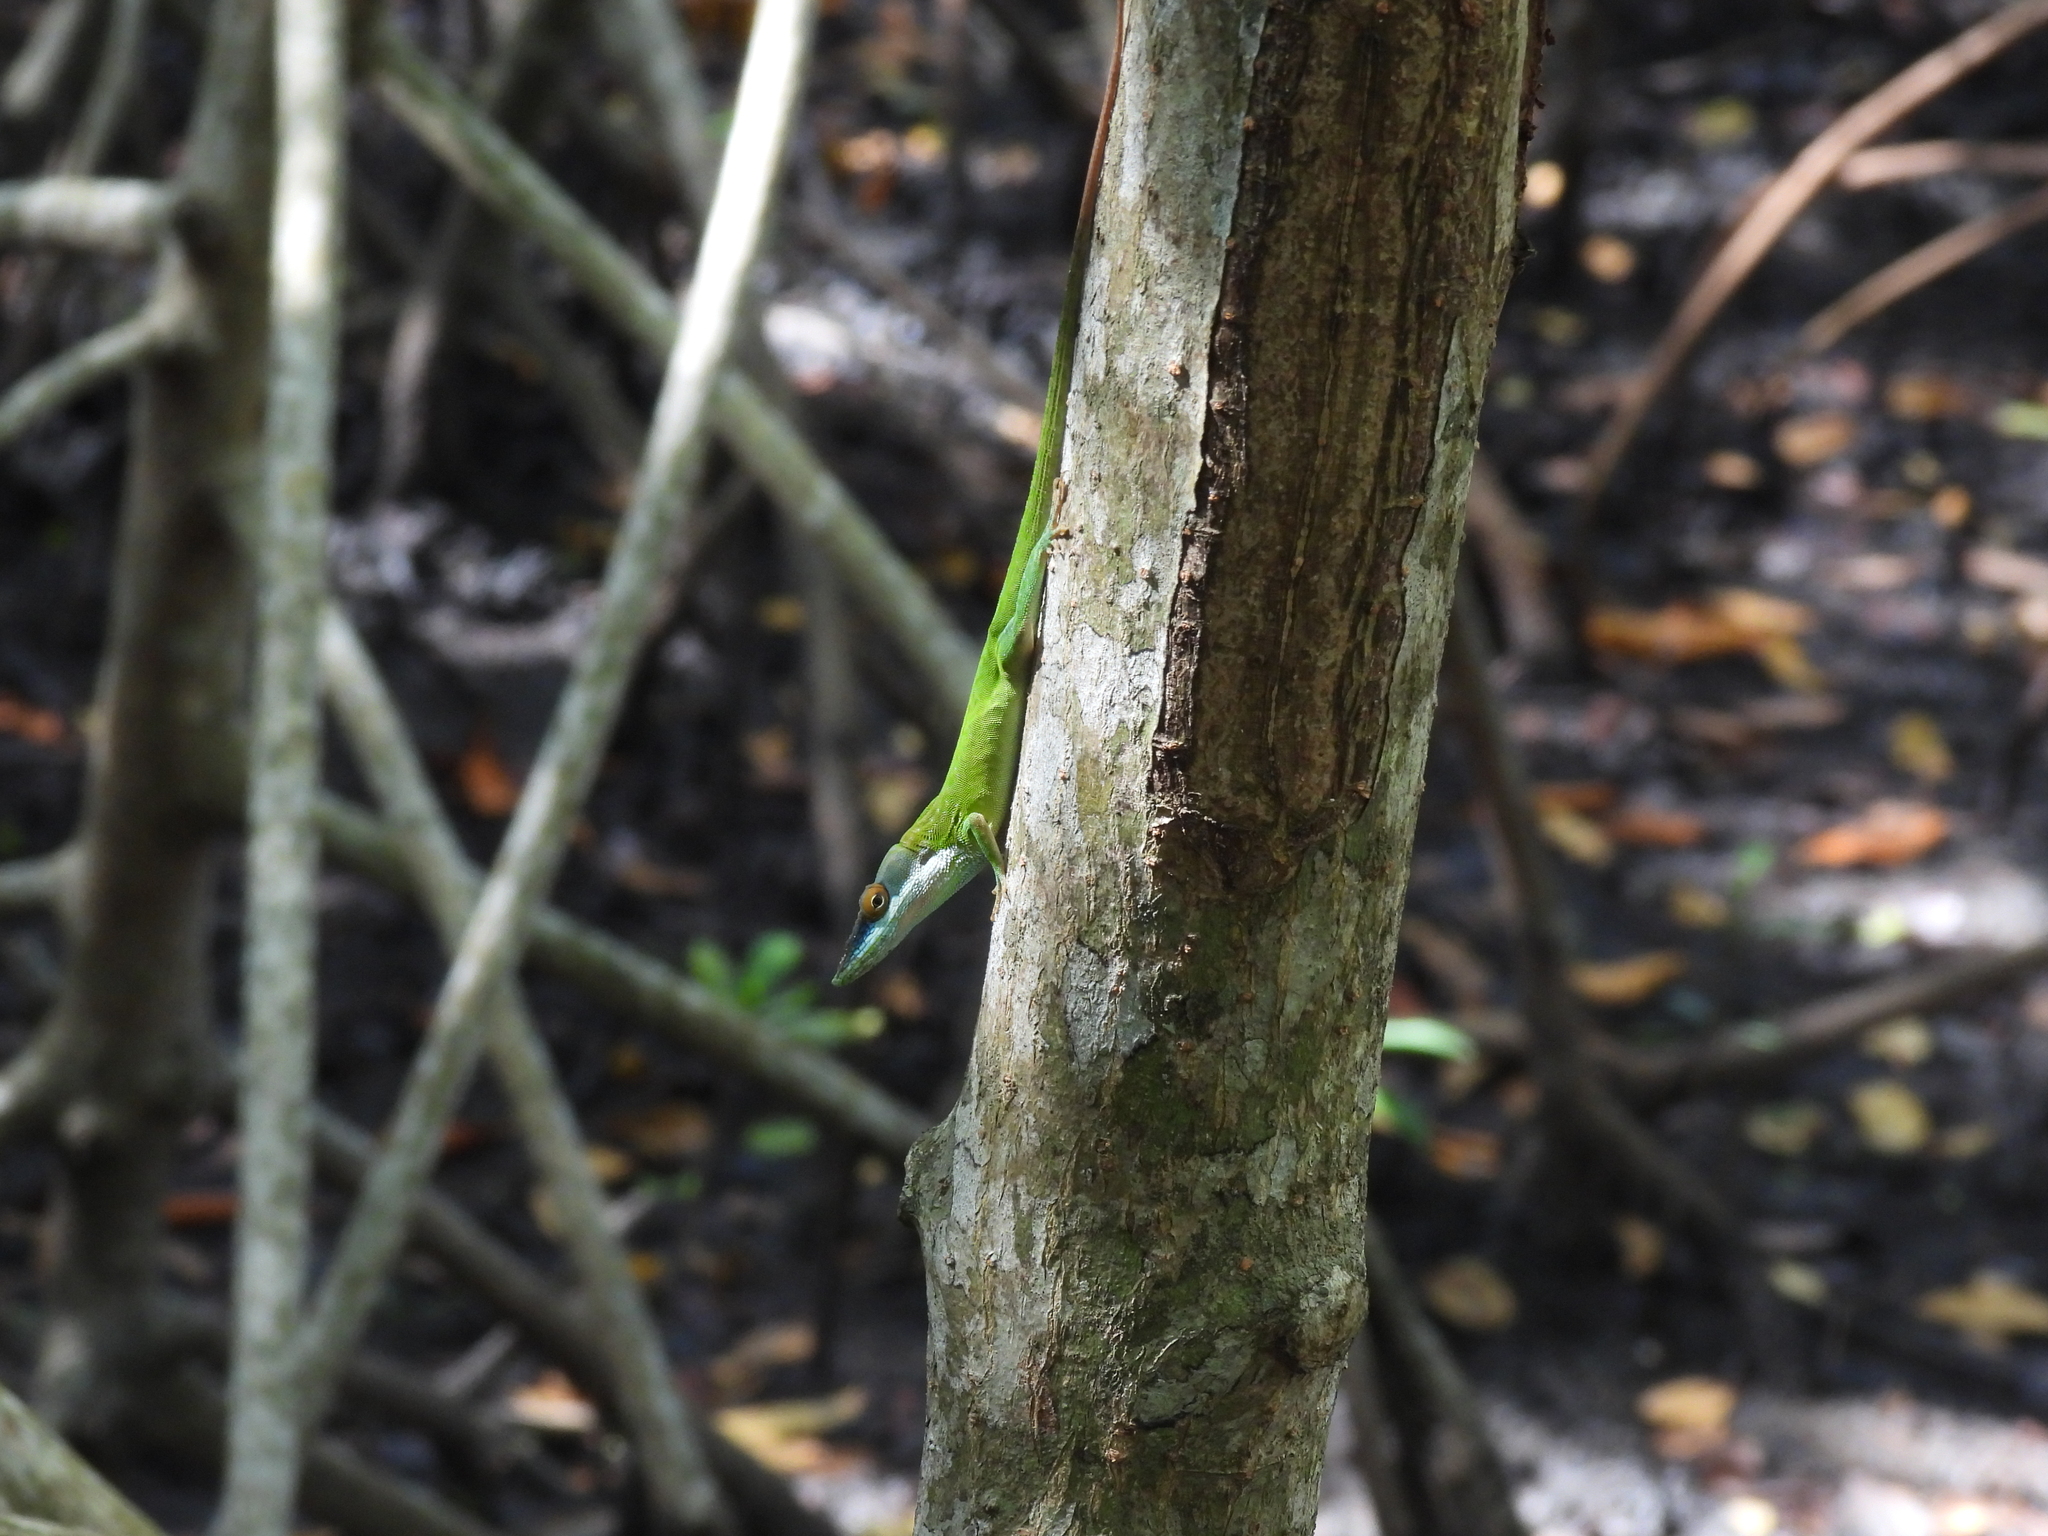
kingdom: Animalia
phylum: Chordata
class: Squamata
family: Dactyloidae
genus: Anolis
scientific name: Anolis allisoni
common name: Allison's anole
